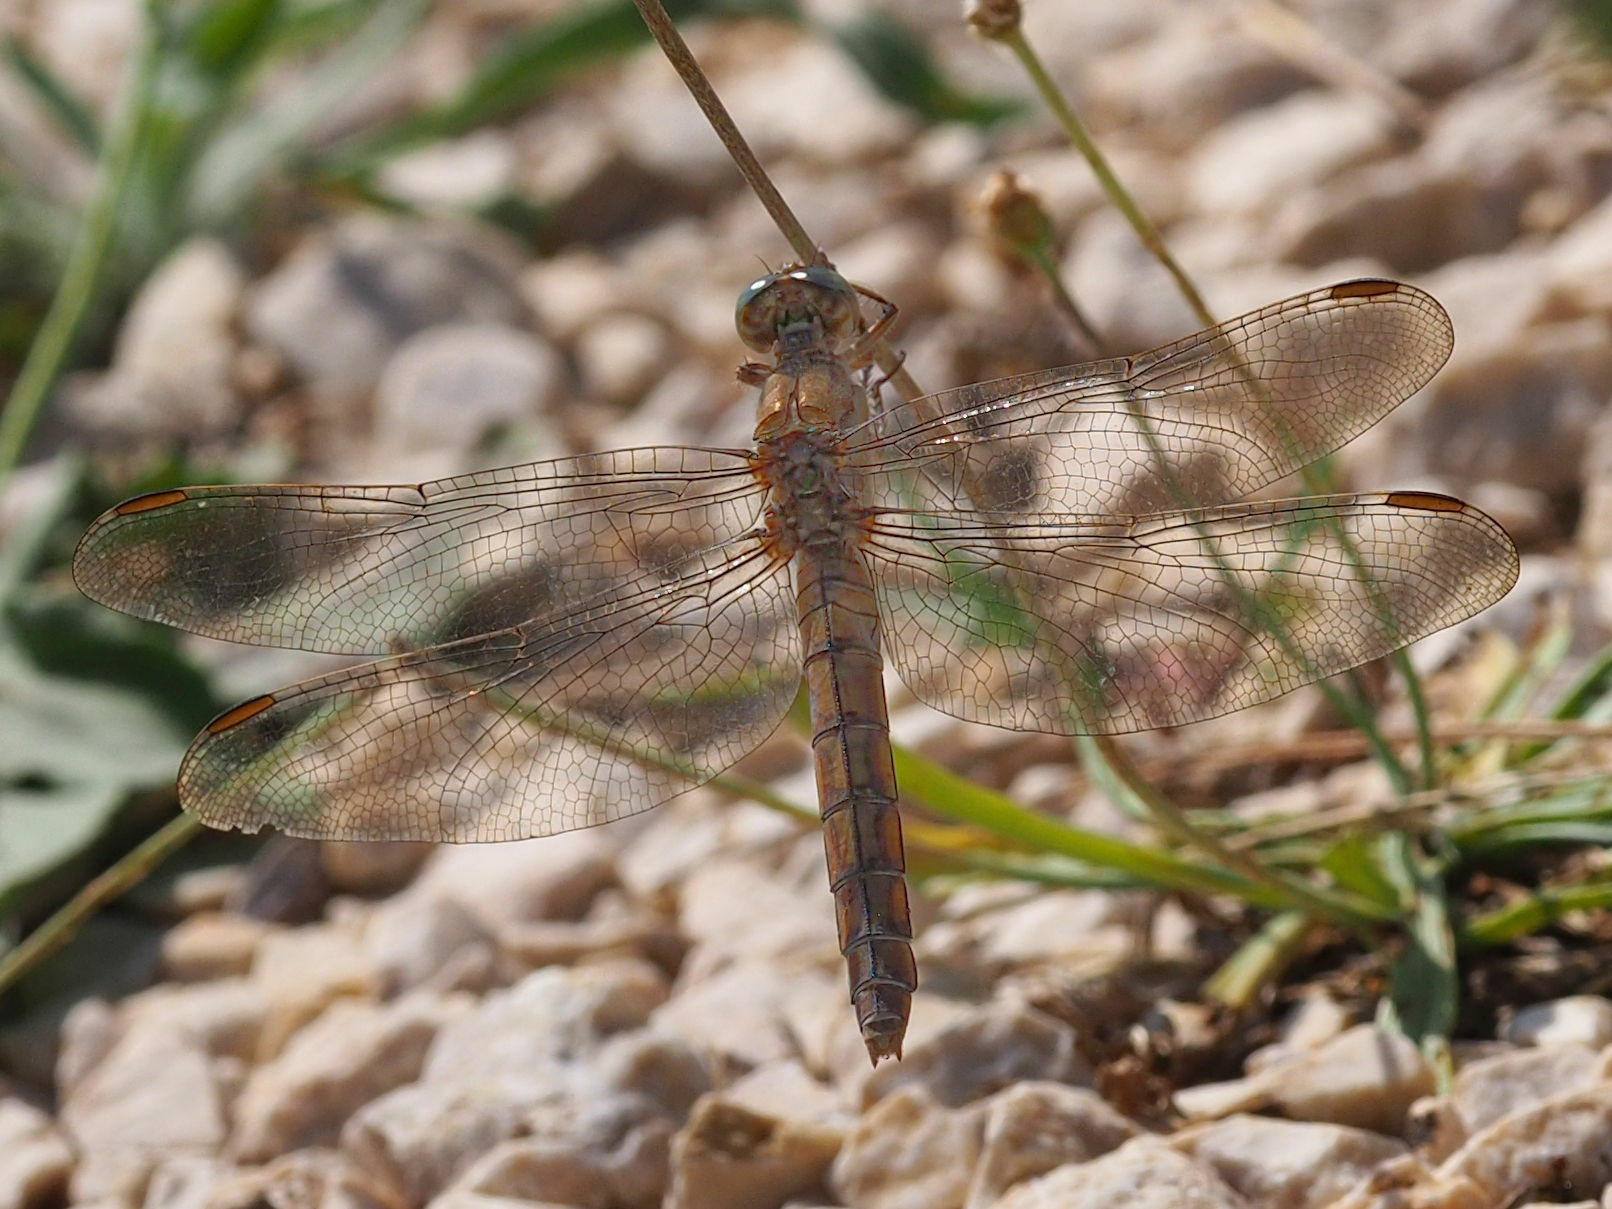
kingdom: Animalia
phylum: Arthropoda
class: Insecta
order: Odonata
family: Libellulidae
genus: Orthetrum
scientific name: Orthetrum brunneum
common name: Southern skimmer
